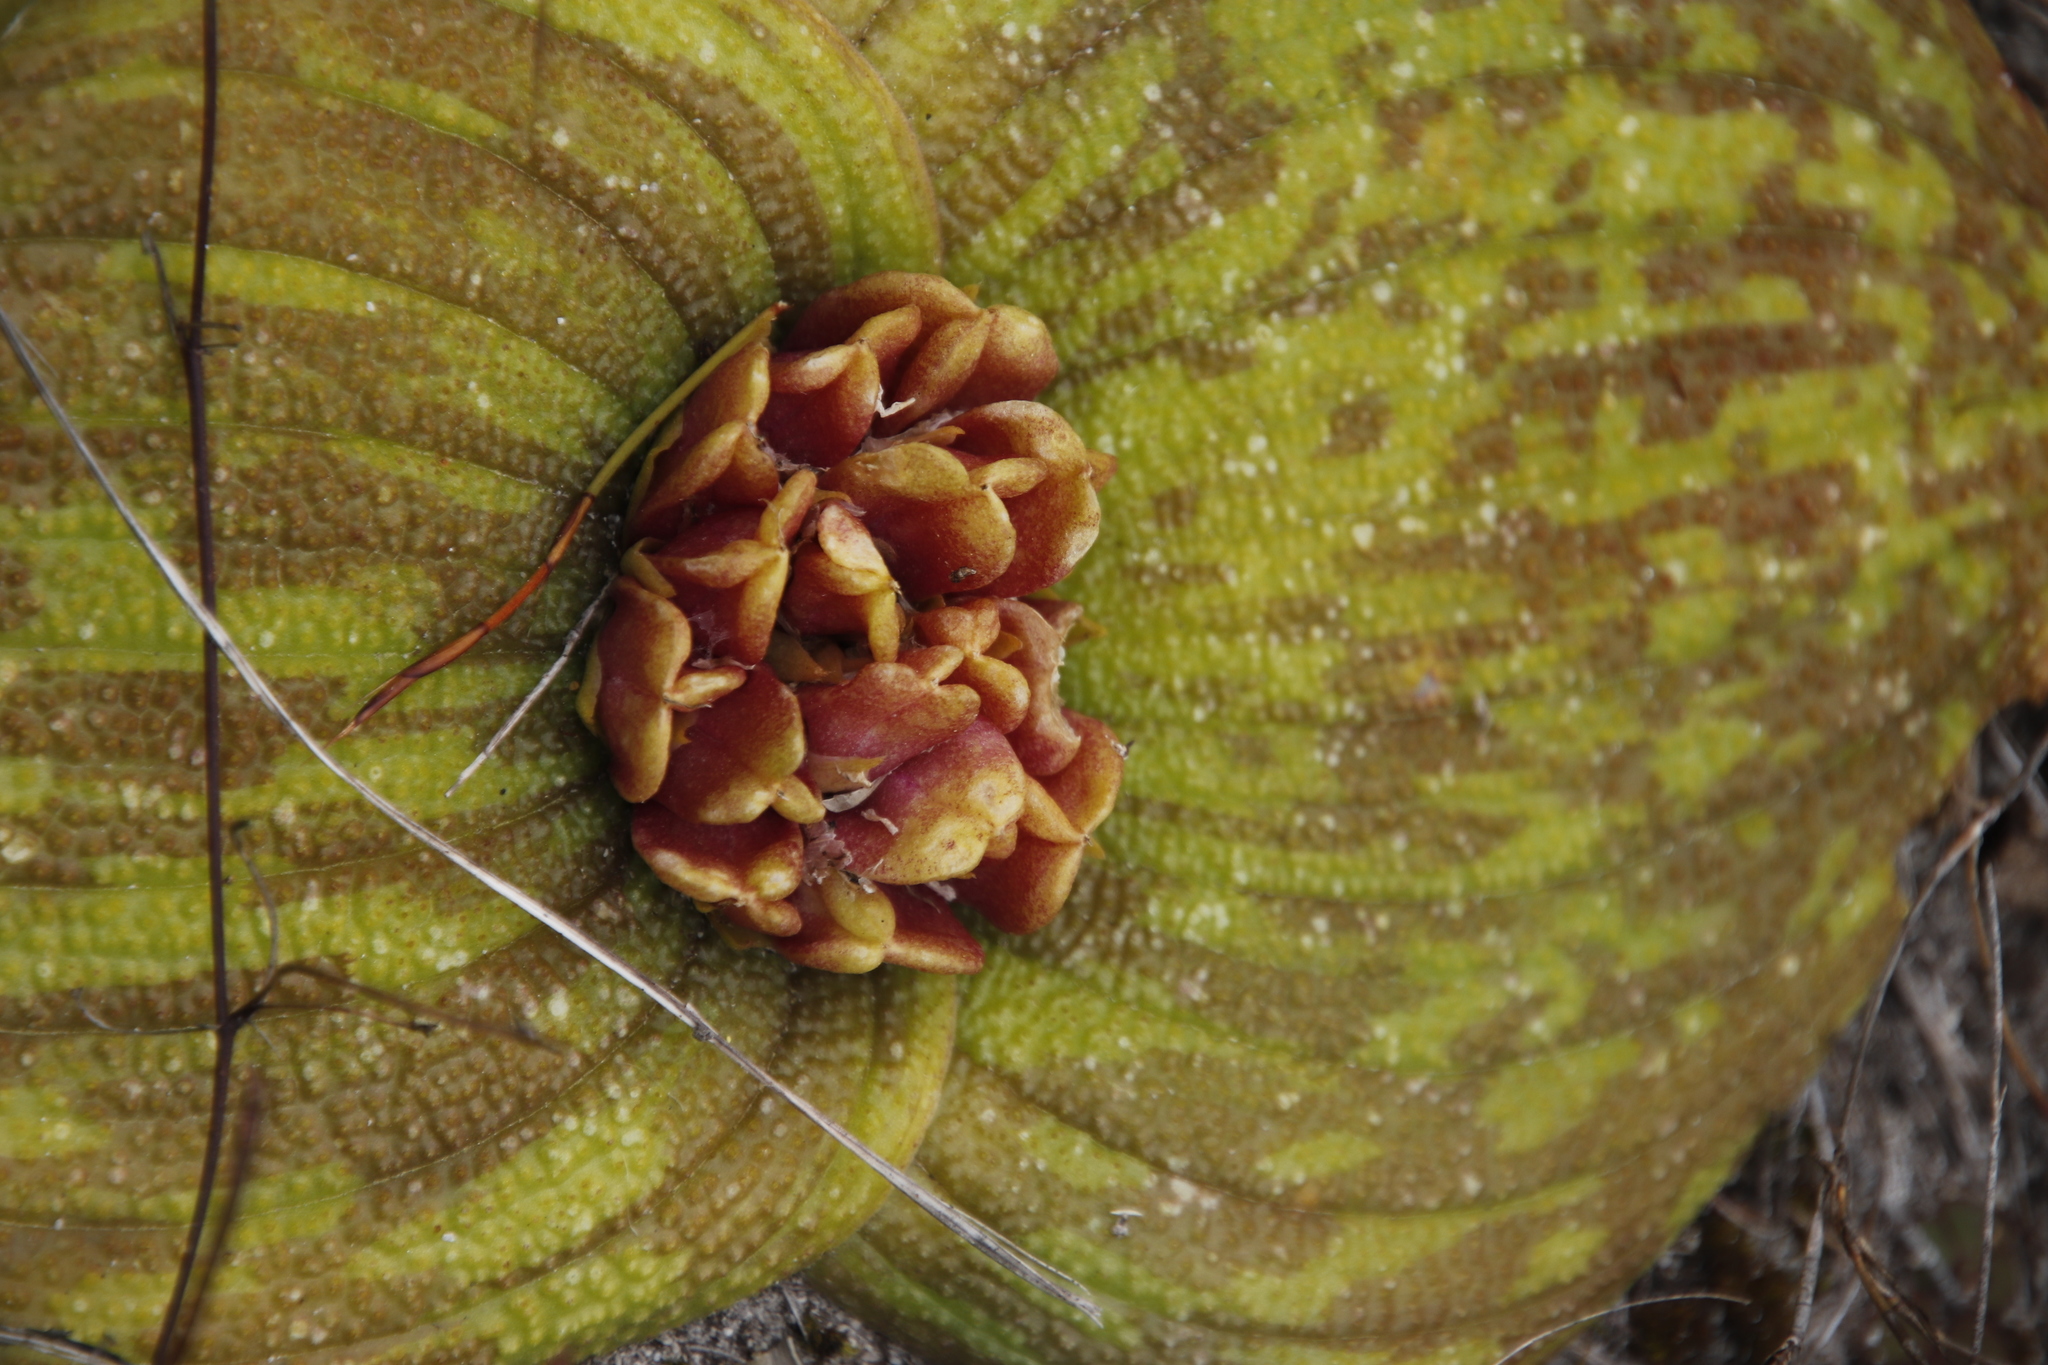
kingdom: Plantae
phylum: Tracheophyta
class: Liliopsida
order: Asparagales
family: Asparagaceae
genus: Massonia
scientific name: Massonia longipes
